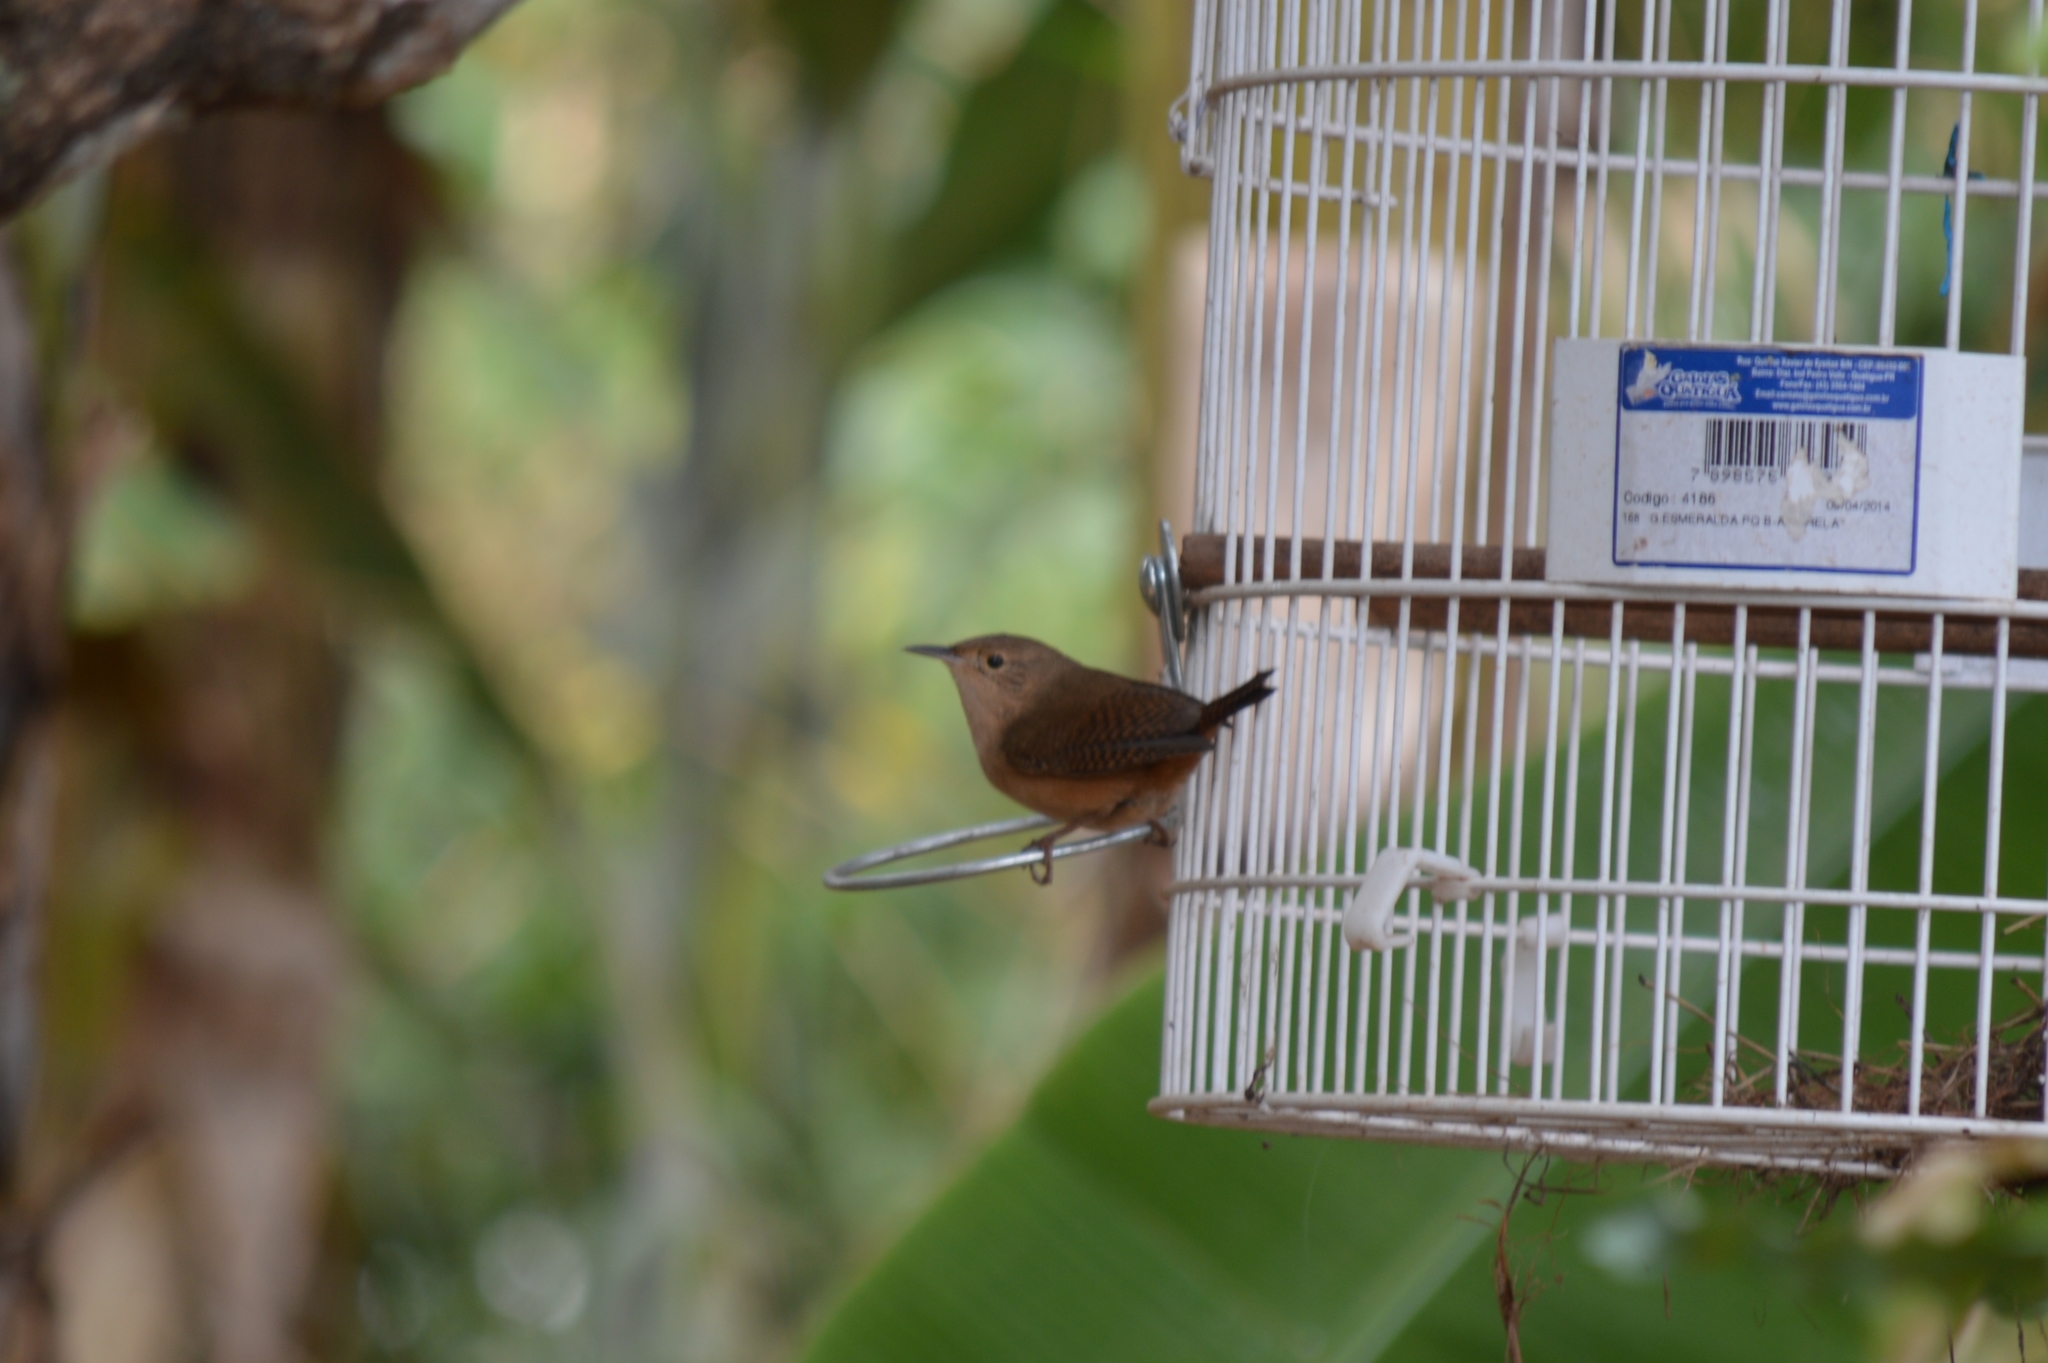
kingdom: Animalia
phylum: Chordata
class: Aves
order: Passeriformes
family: Troglodytidae
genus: Troglodytes
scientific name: Troglodytes aedon
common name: House wren
